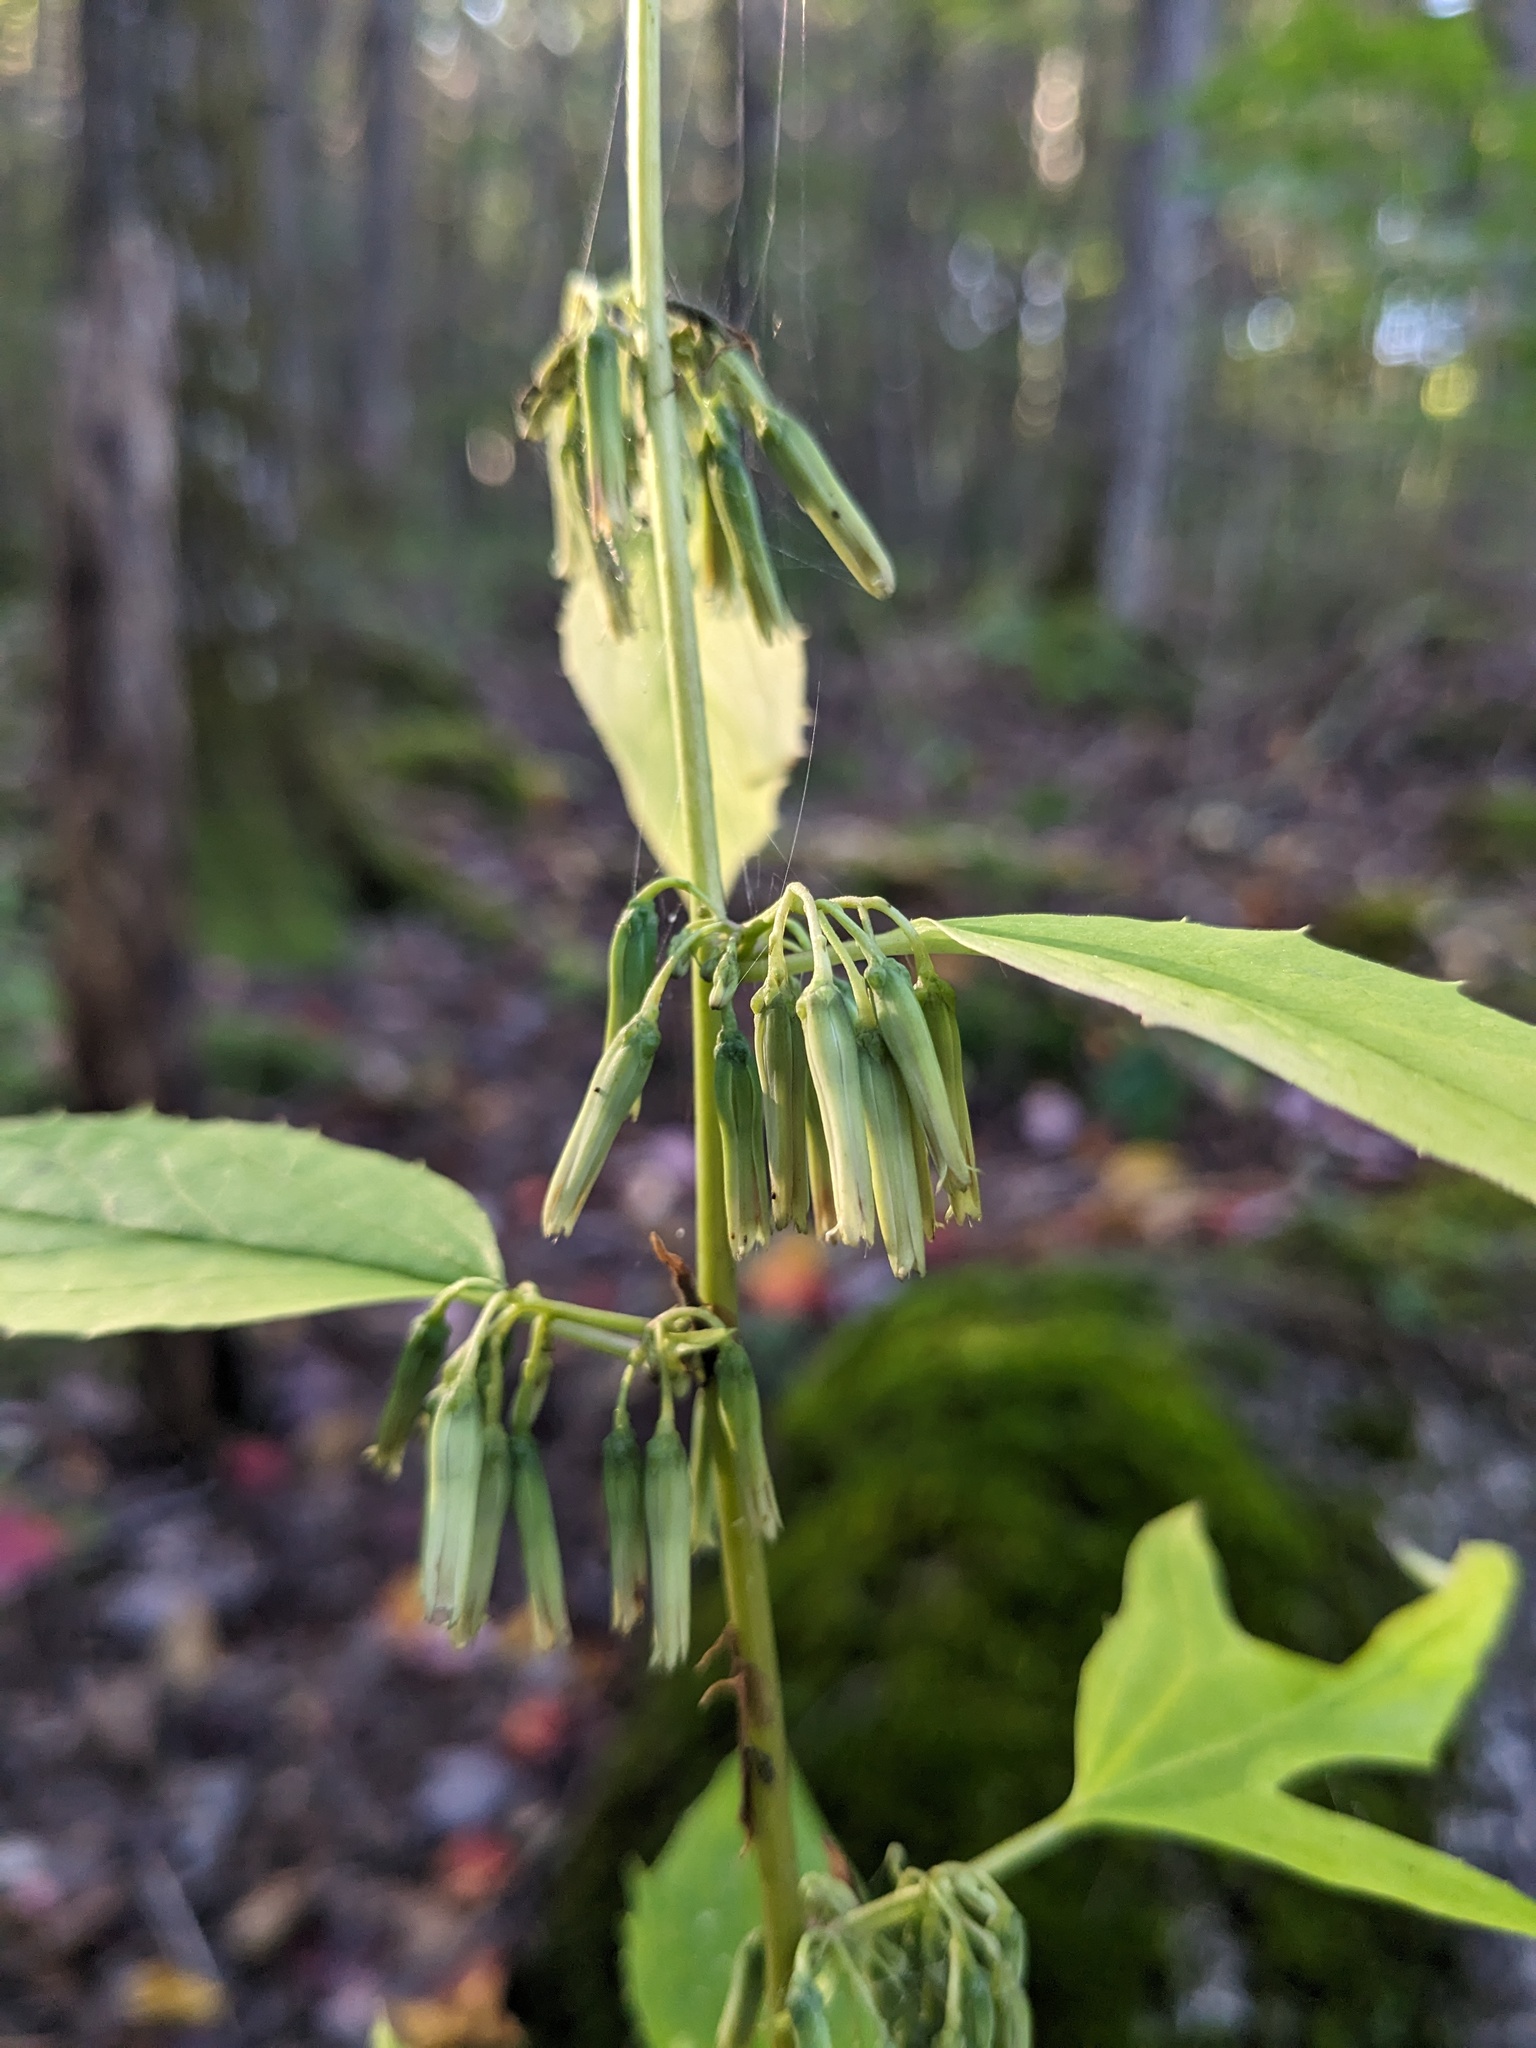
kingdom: Plantae
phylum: Tracheophyta
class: Magnoliopsida
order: Asterales
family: Asteraceae
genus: Nabalus
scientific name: Nabalus altissima
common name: Tall rattlesnakeroot
